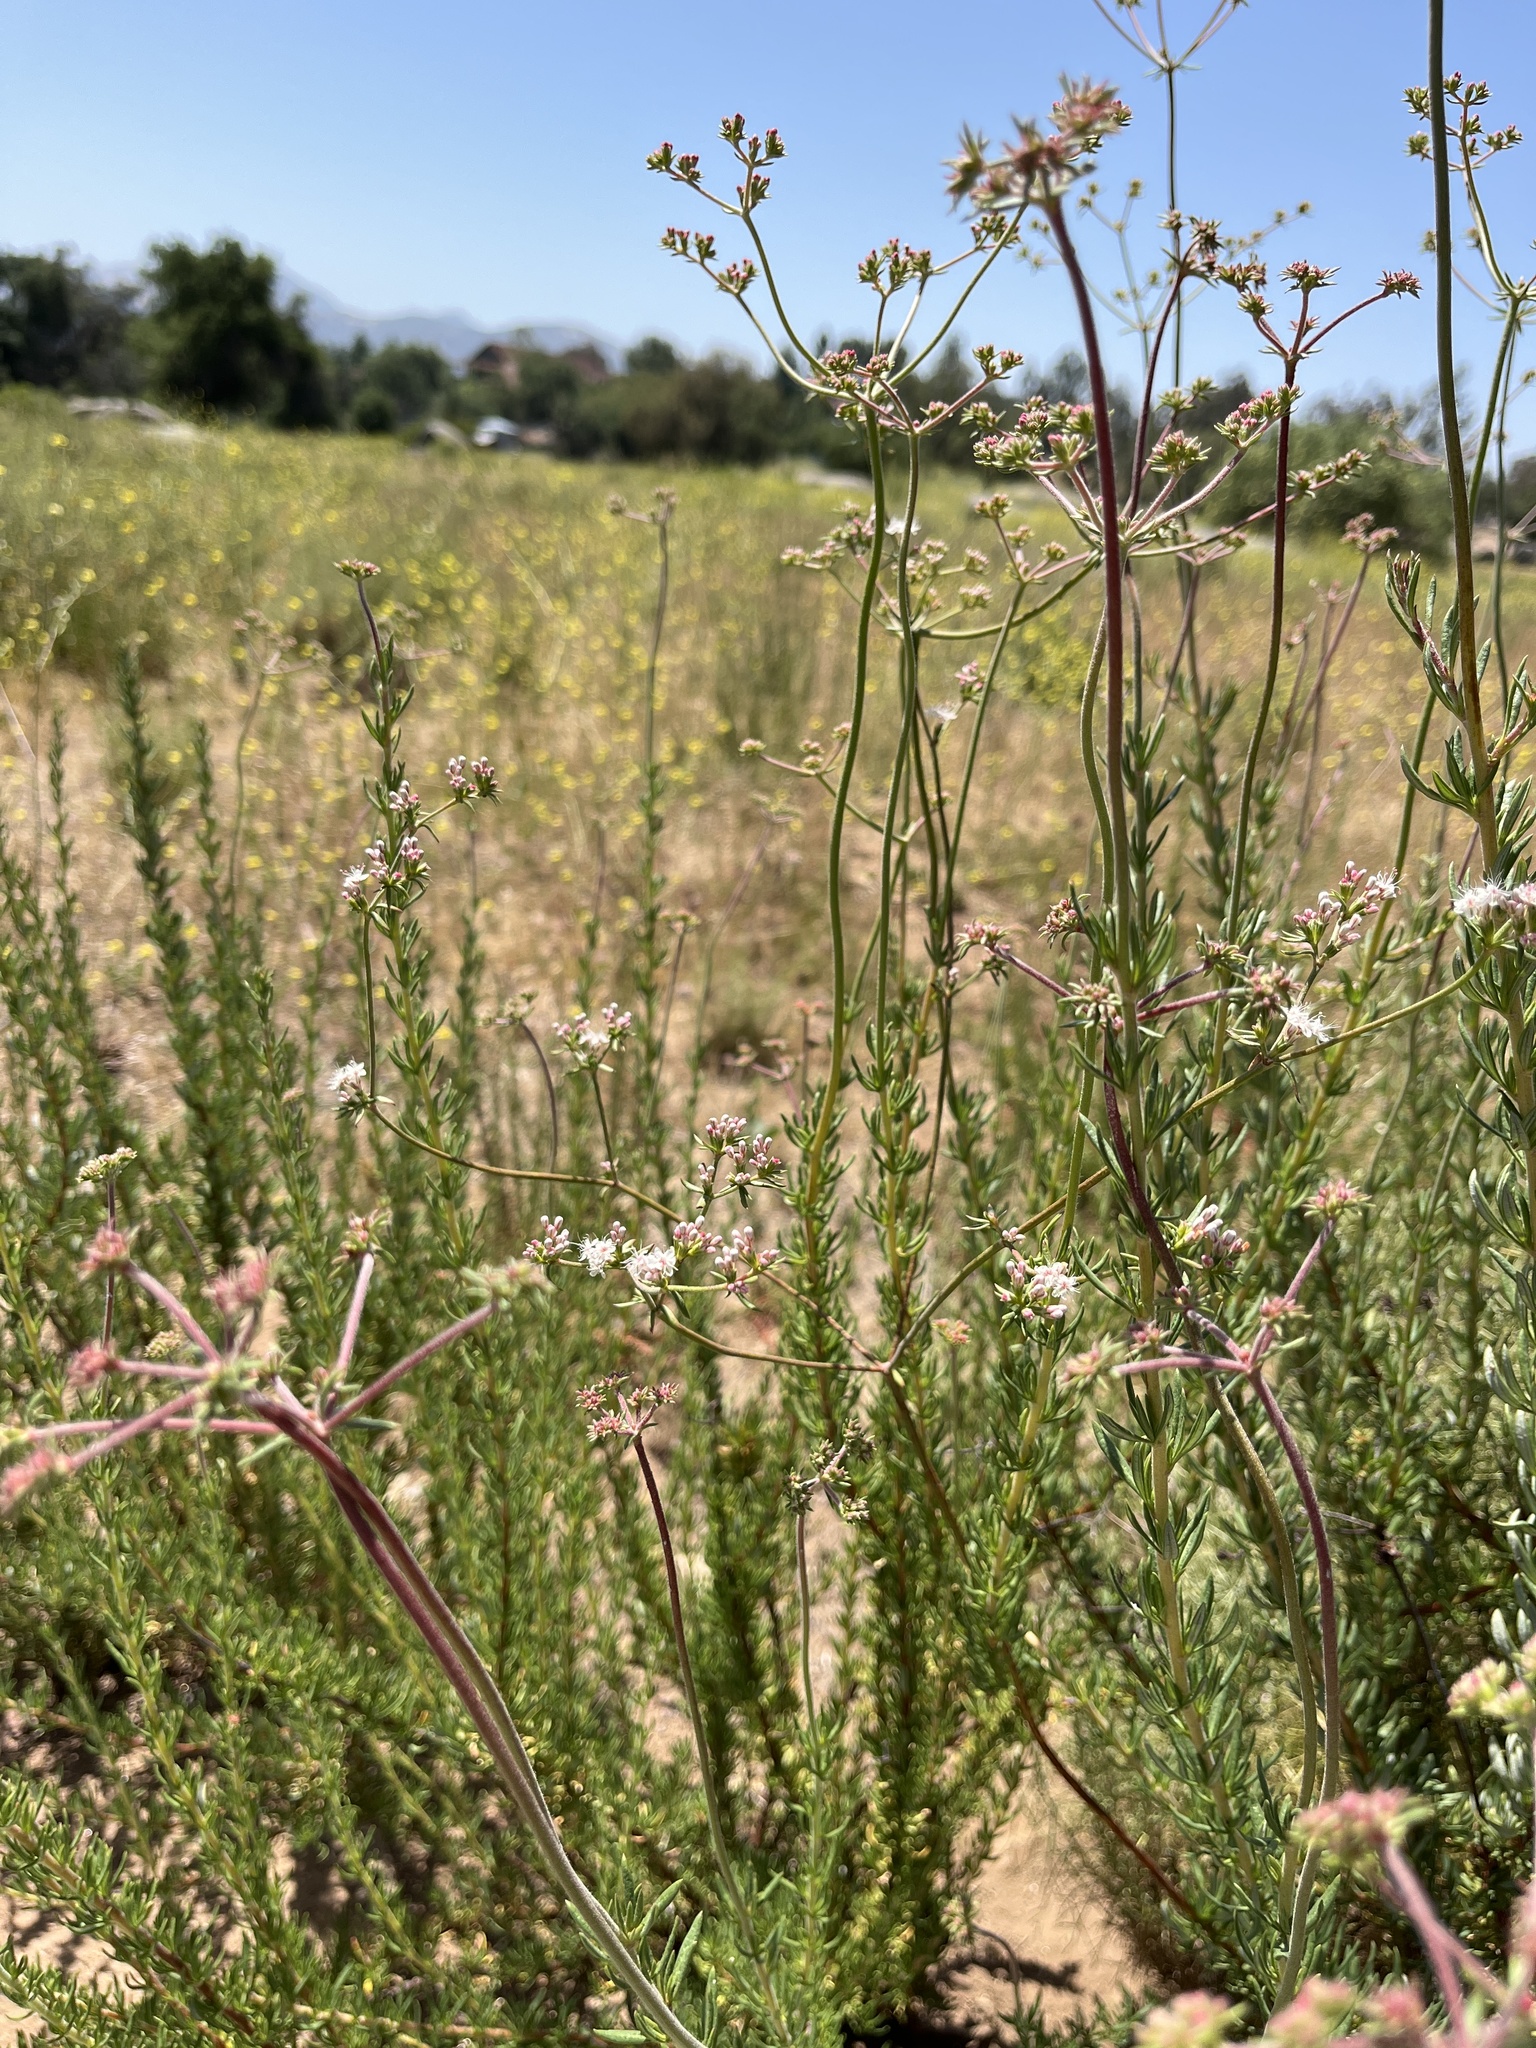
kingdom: Plantae
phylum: Tracheophyta
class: Magnoliopsida
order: Caryophyllales
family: Polygonaceae
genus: Eriogonum
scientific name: Eriogonum fasciculatum
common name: California wild buckwheat
